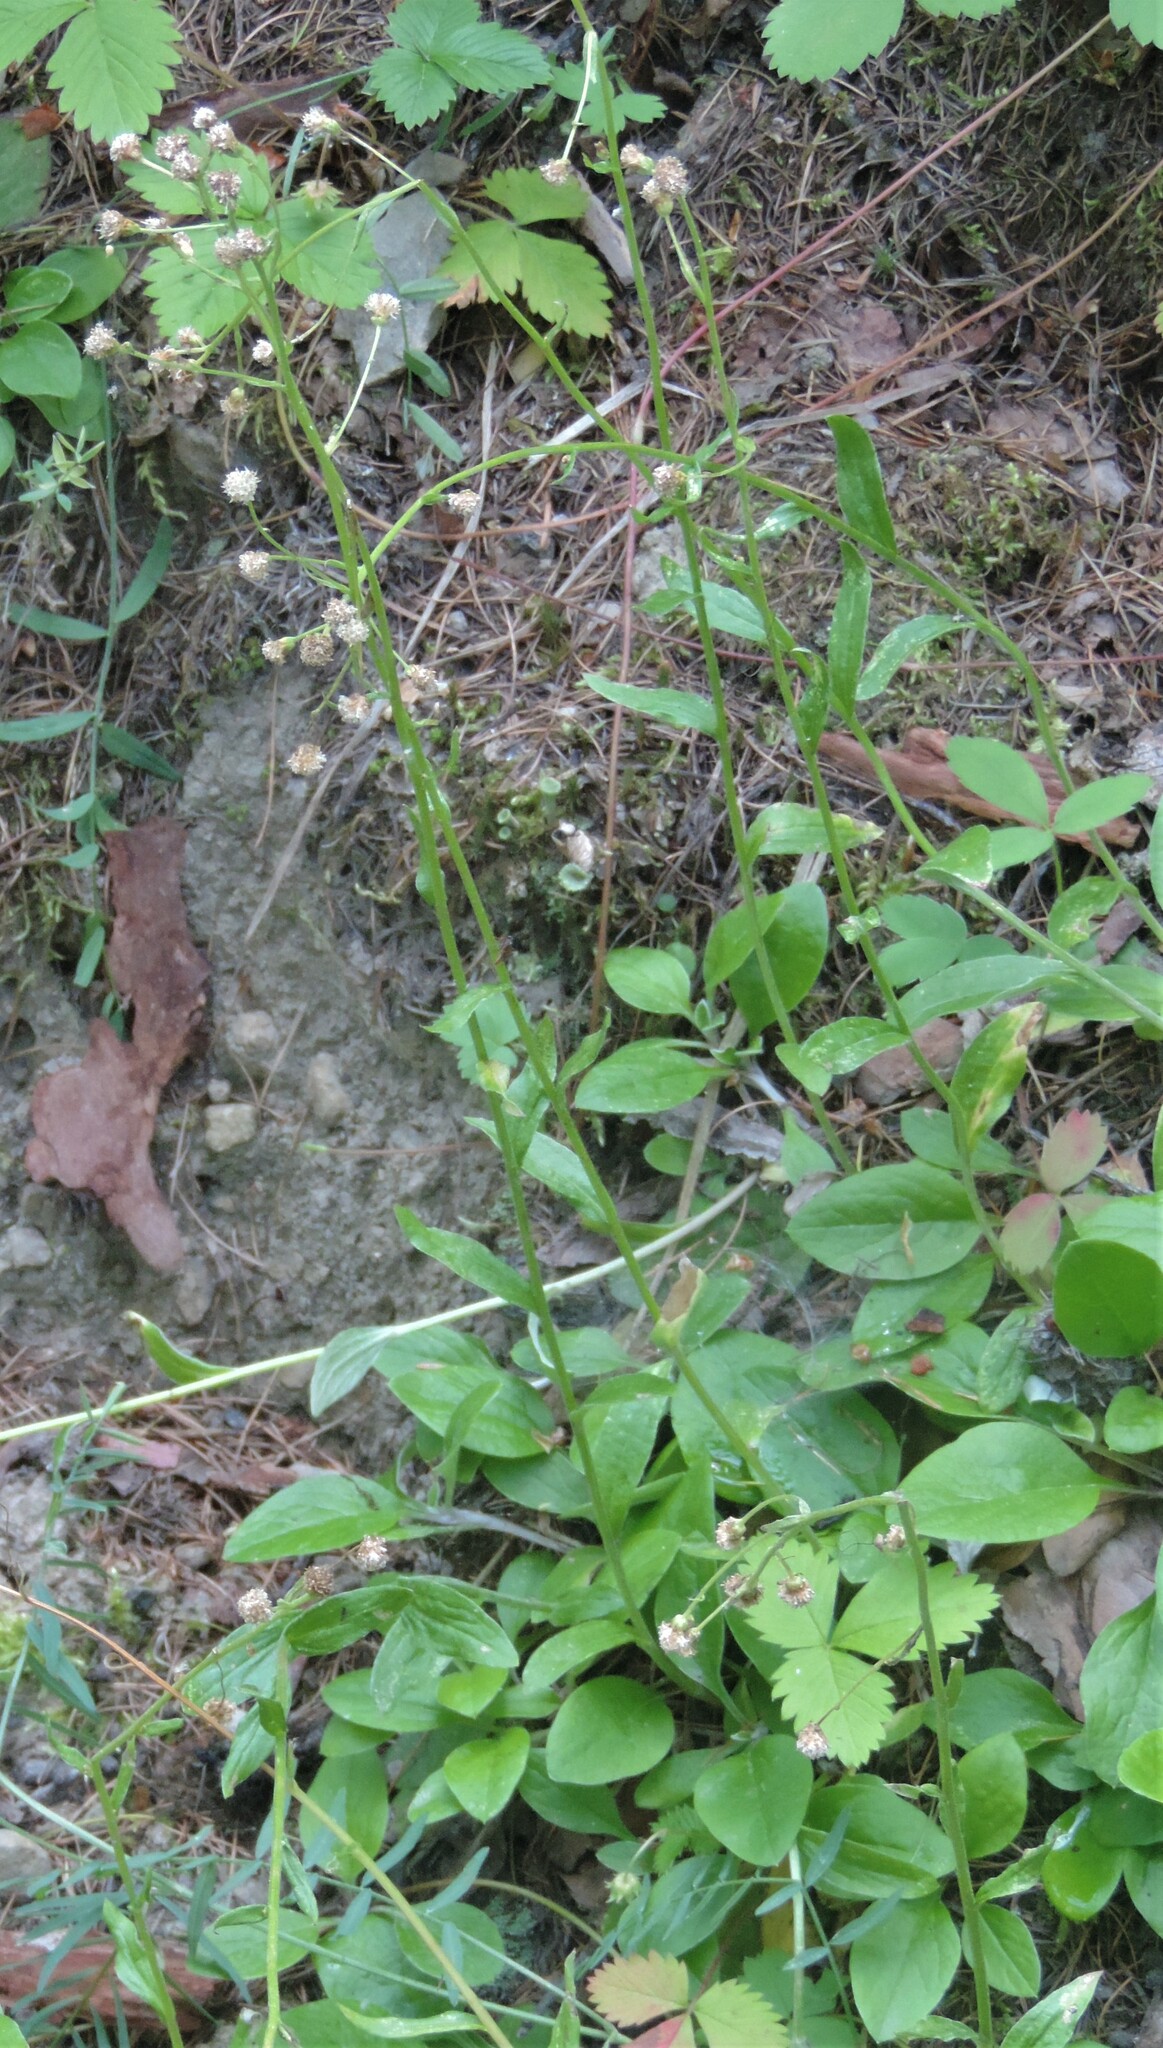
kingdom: Plantae
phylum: Tracheophyta
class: Magnoliopsida
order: Asterales
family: Asteraceae
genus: Antennaria
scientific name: Antennaria racemosa
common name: Racemose pussytoes
